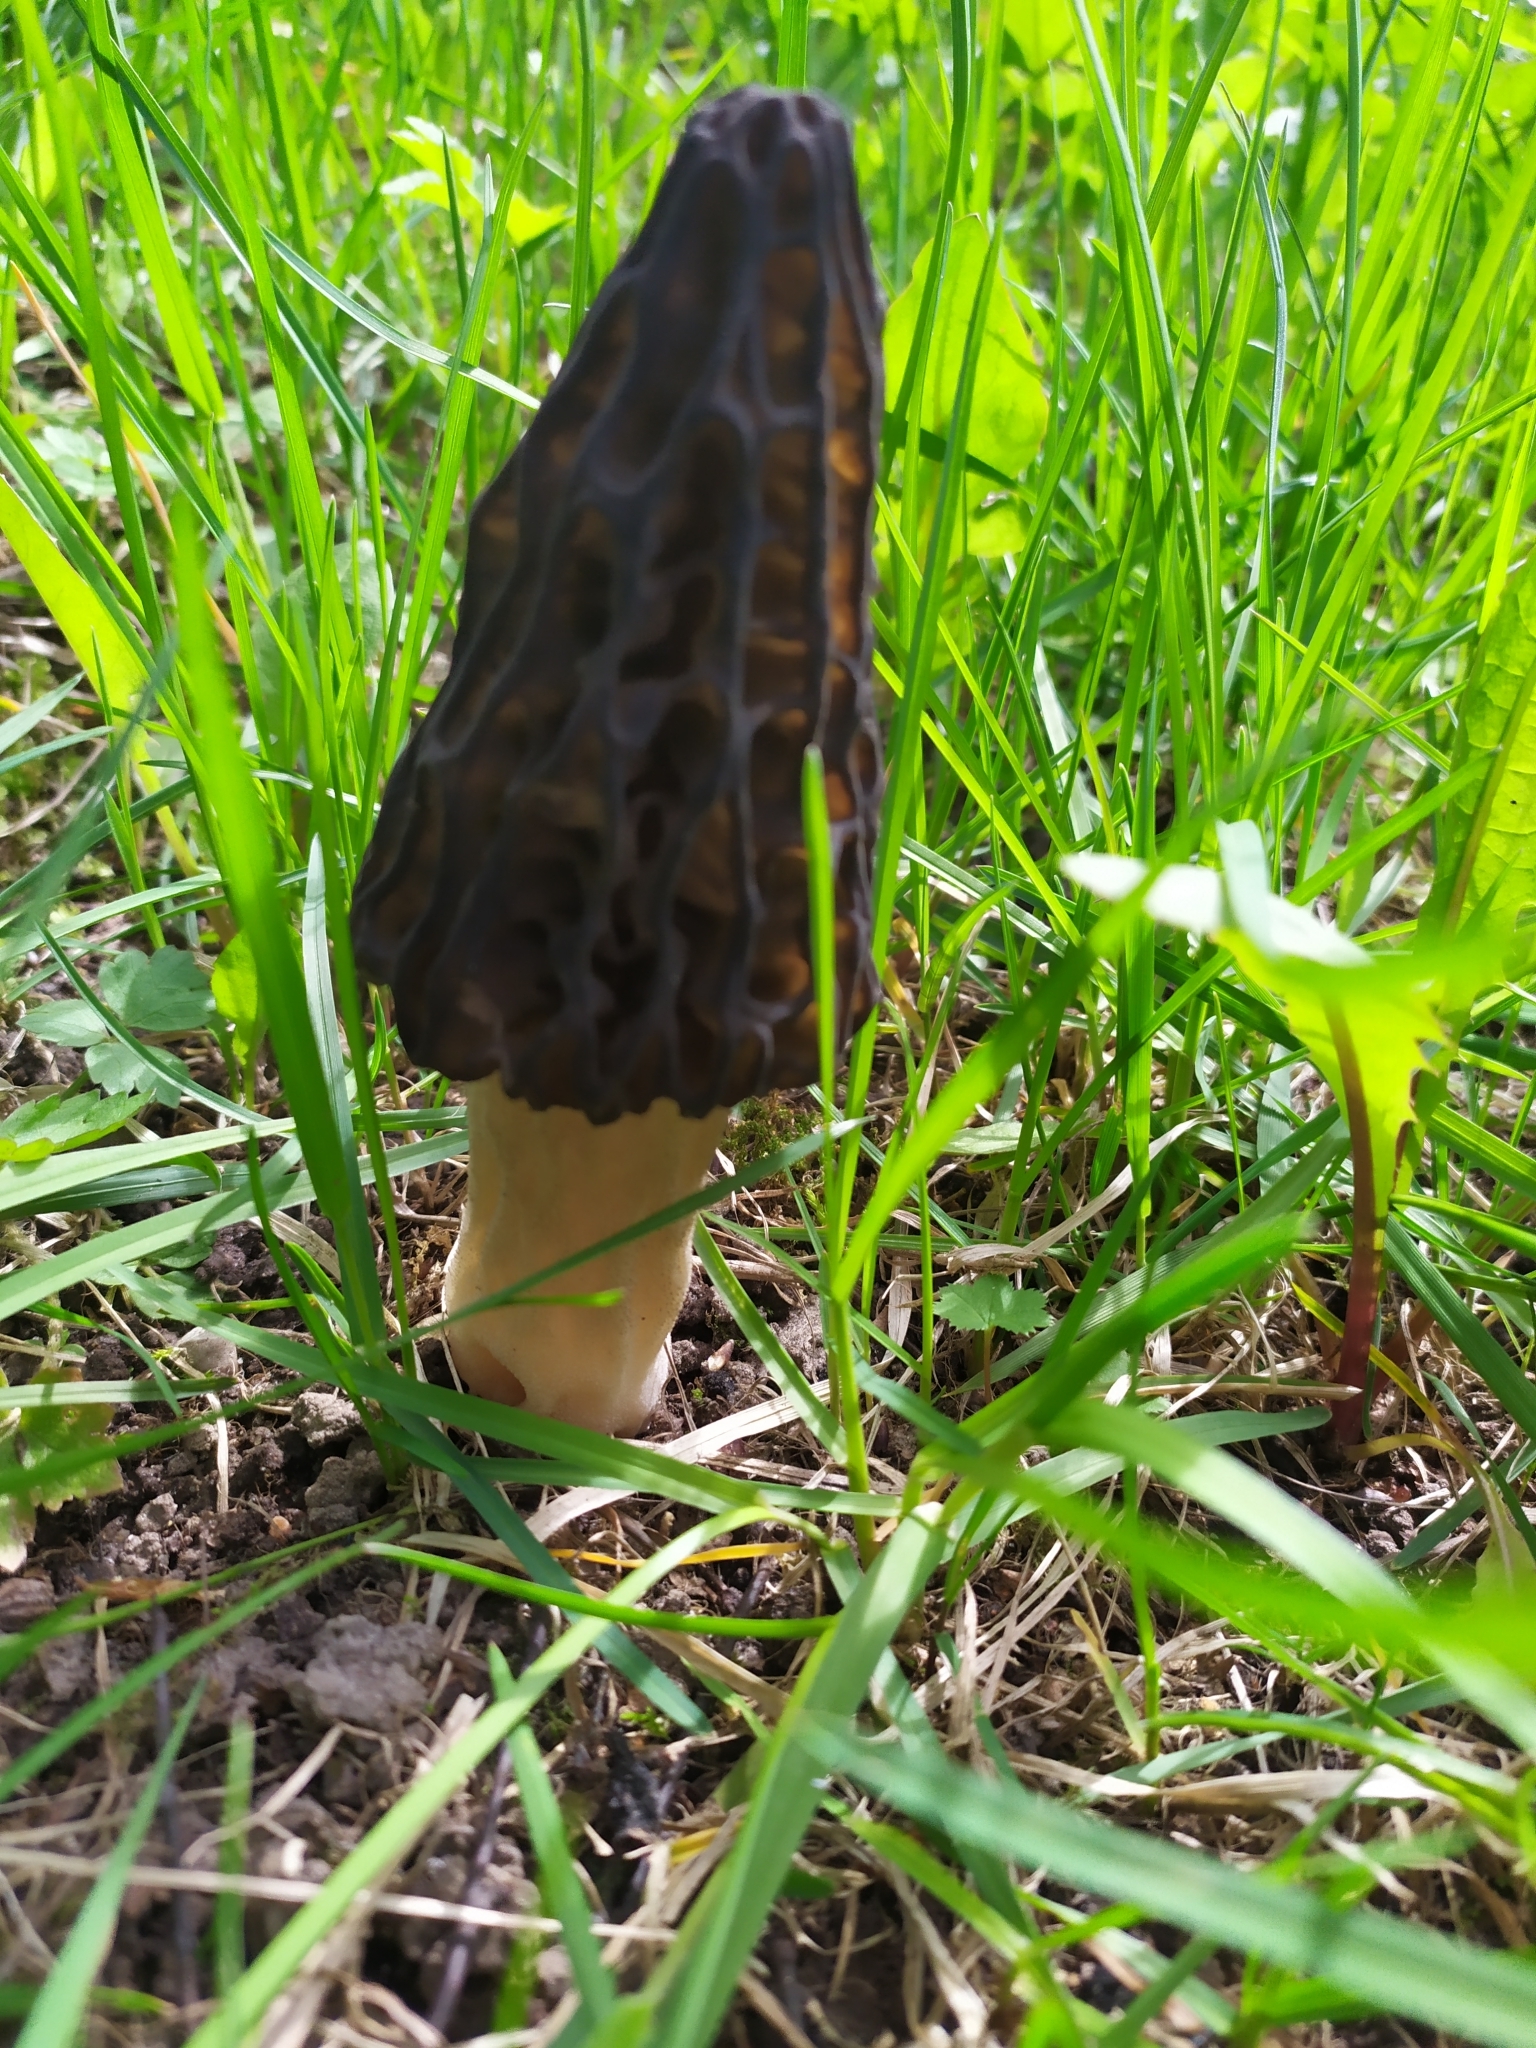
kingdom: Fungi
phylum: Ascomycota
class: Pezizomycetes
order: Pezizales
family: Morchellaceae
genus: Morchella
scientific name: Morchella
